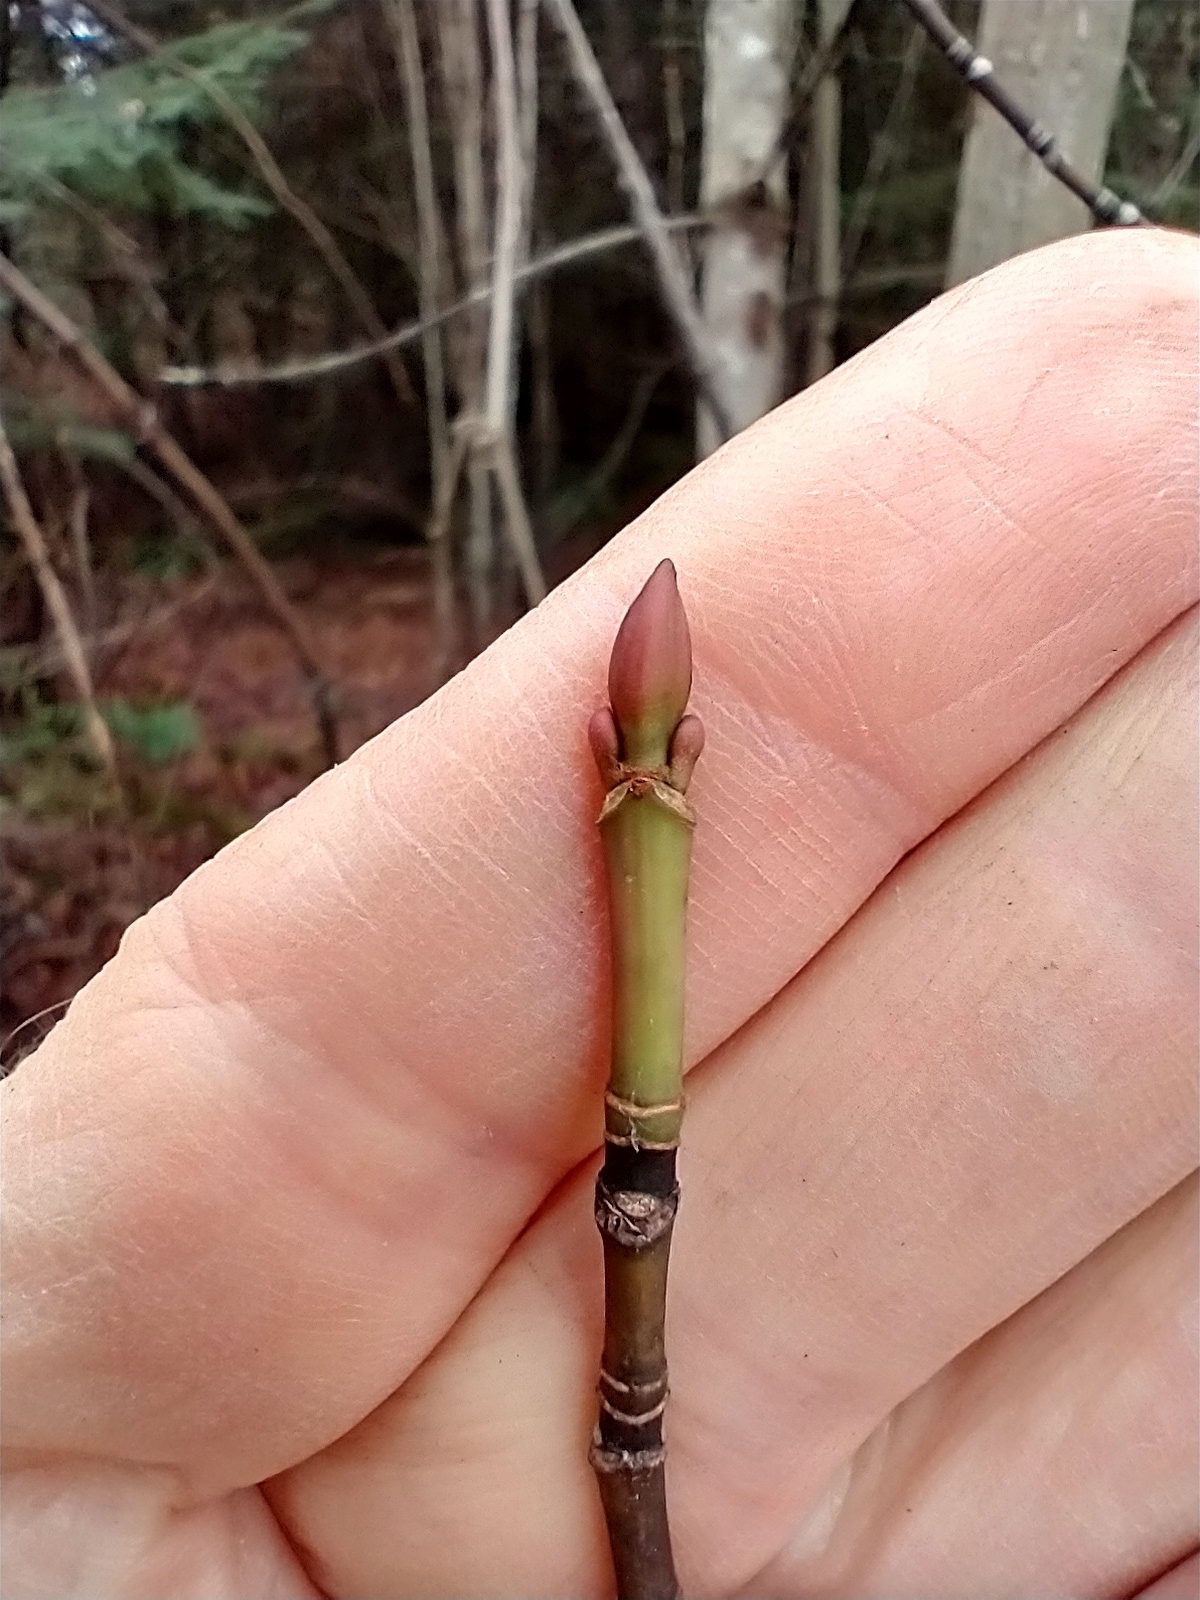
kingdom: Plantae
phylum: Tracheophyta
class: Magnoliopsida
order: Sapindales
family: Sapindaceae
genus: Acer
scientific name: Acer pensylvanicum
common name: Moosewood
